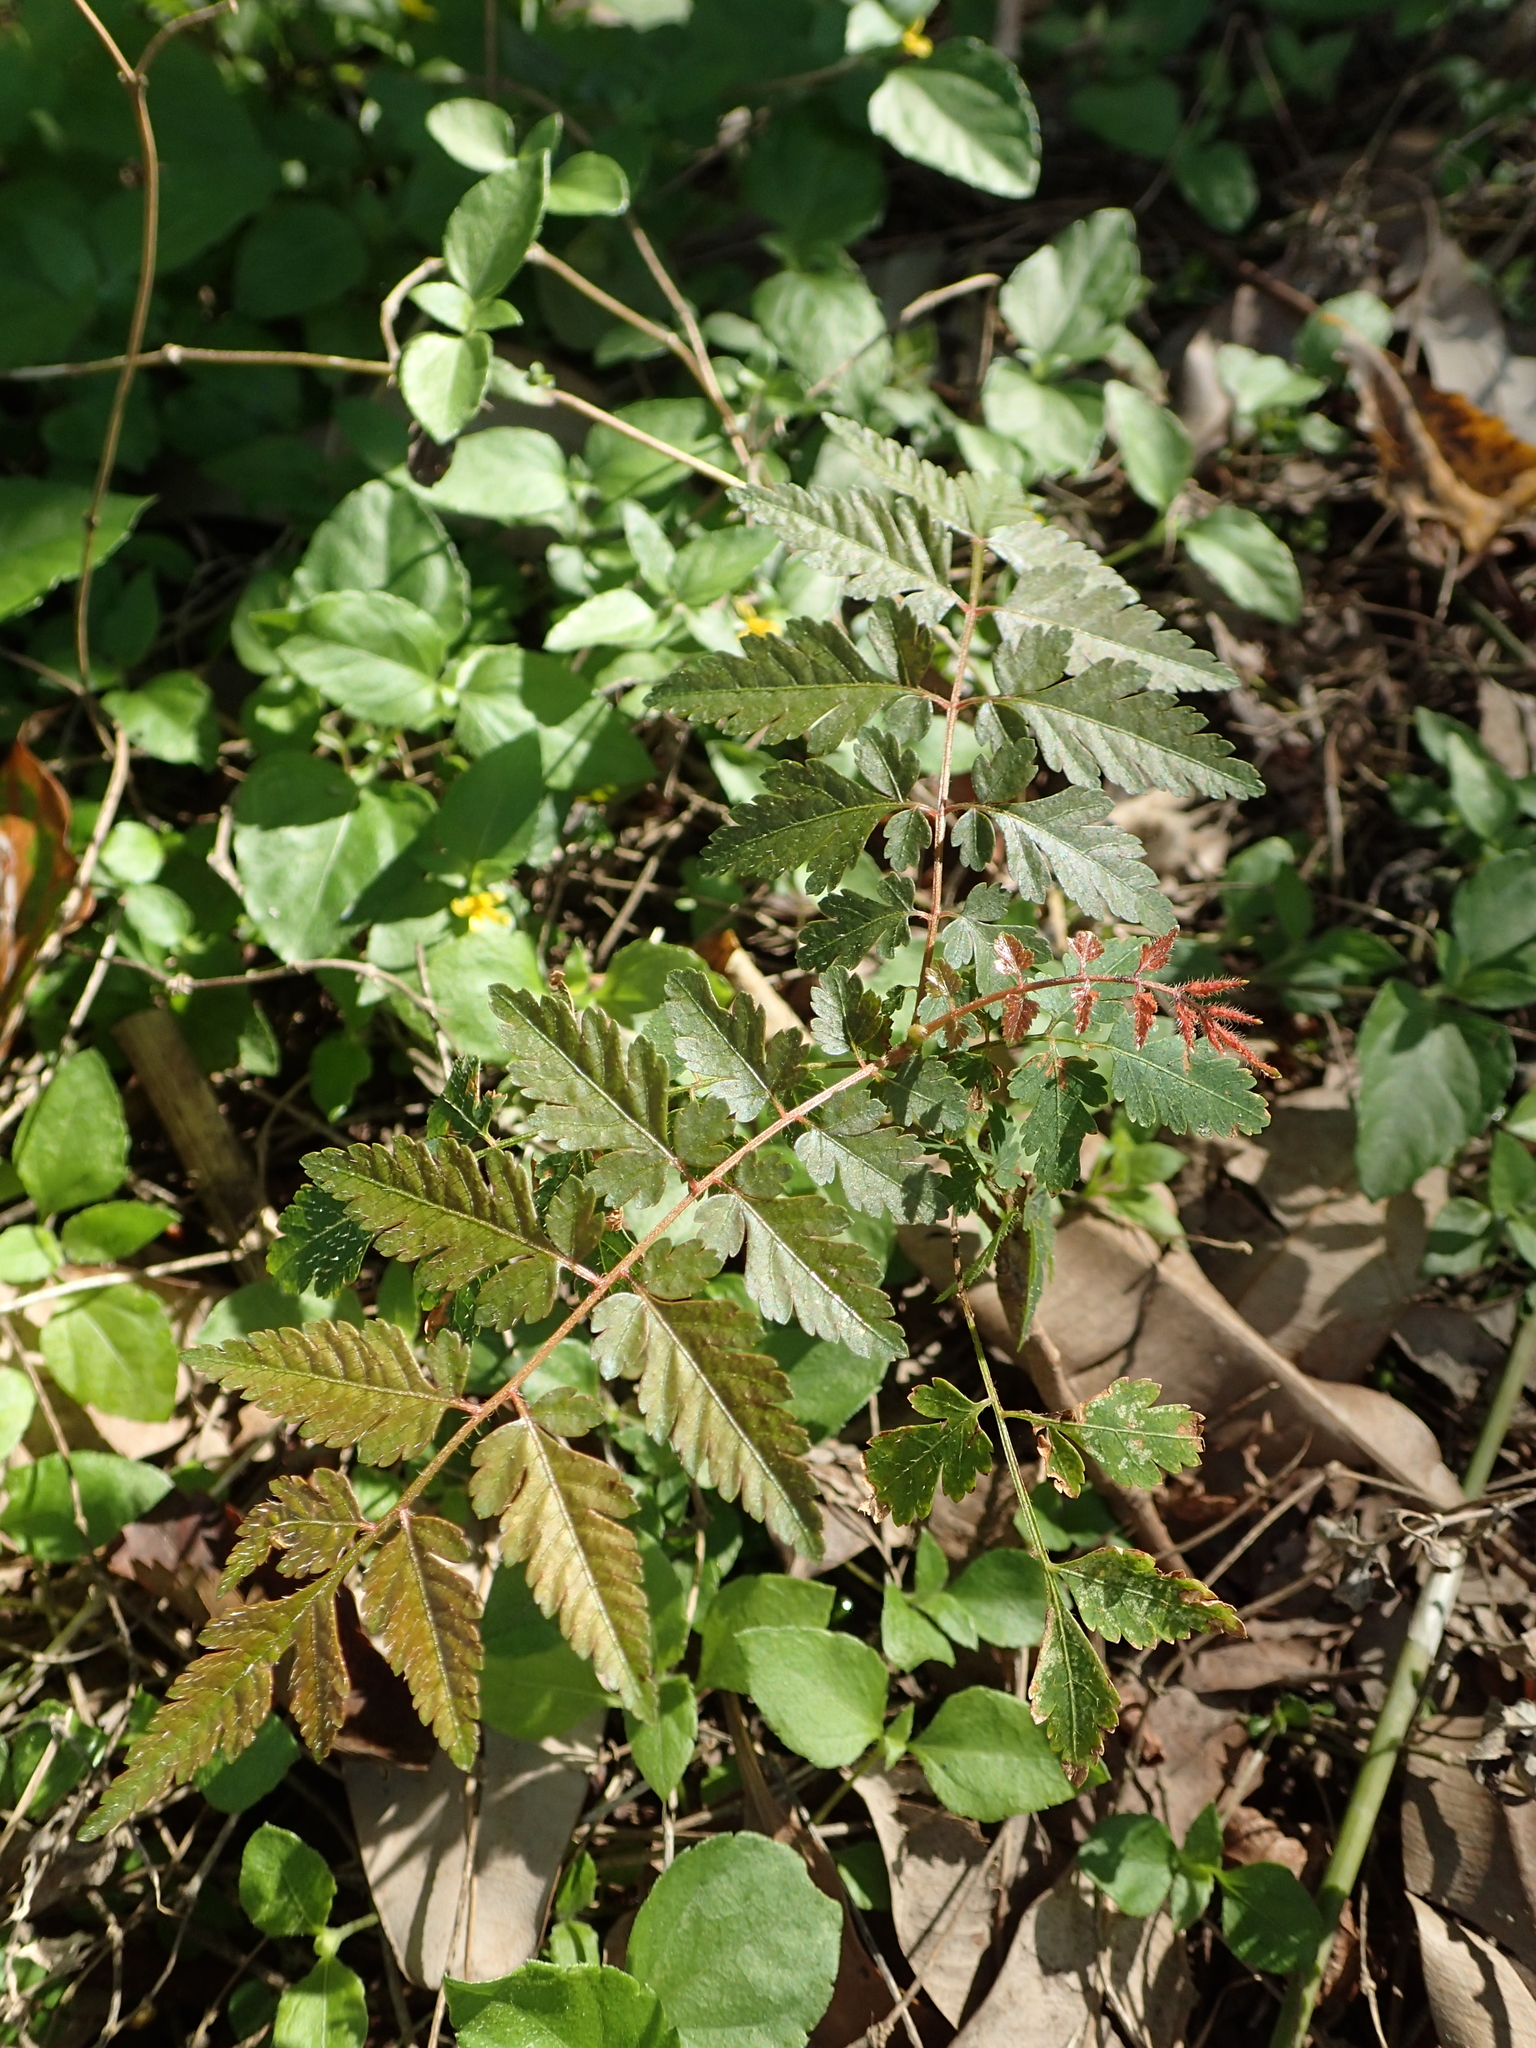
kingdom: Plantae
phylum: Tracheophyta
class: Magnoliopsida
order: Sapindales
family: Sapindaceae
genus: Koelreuteria
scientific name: Koelreuteria elegans
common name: Chinese flame tree
